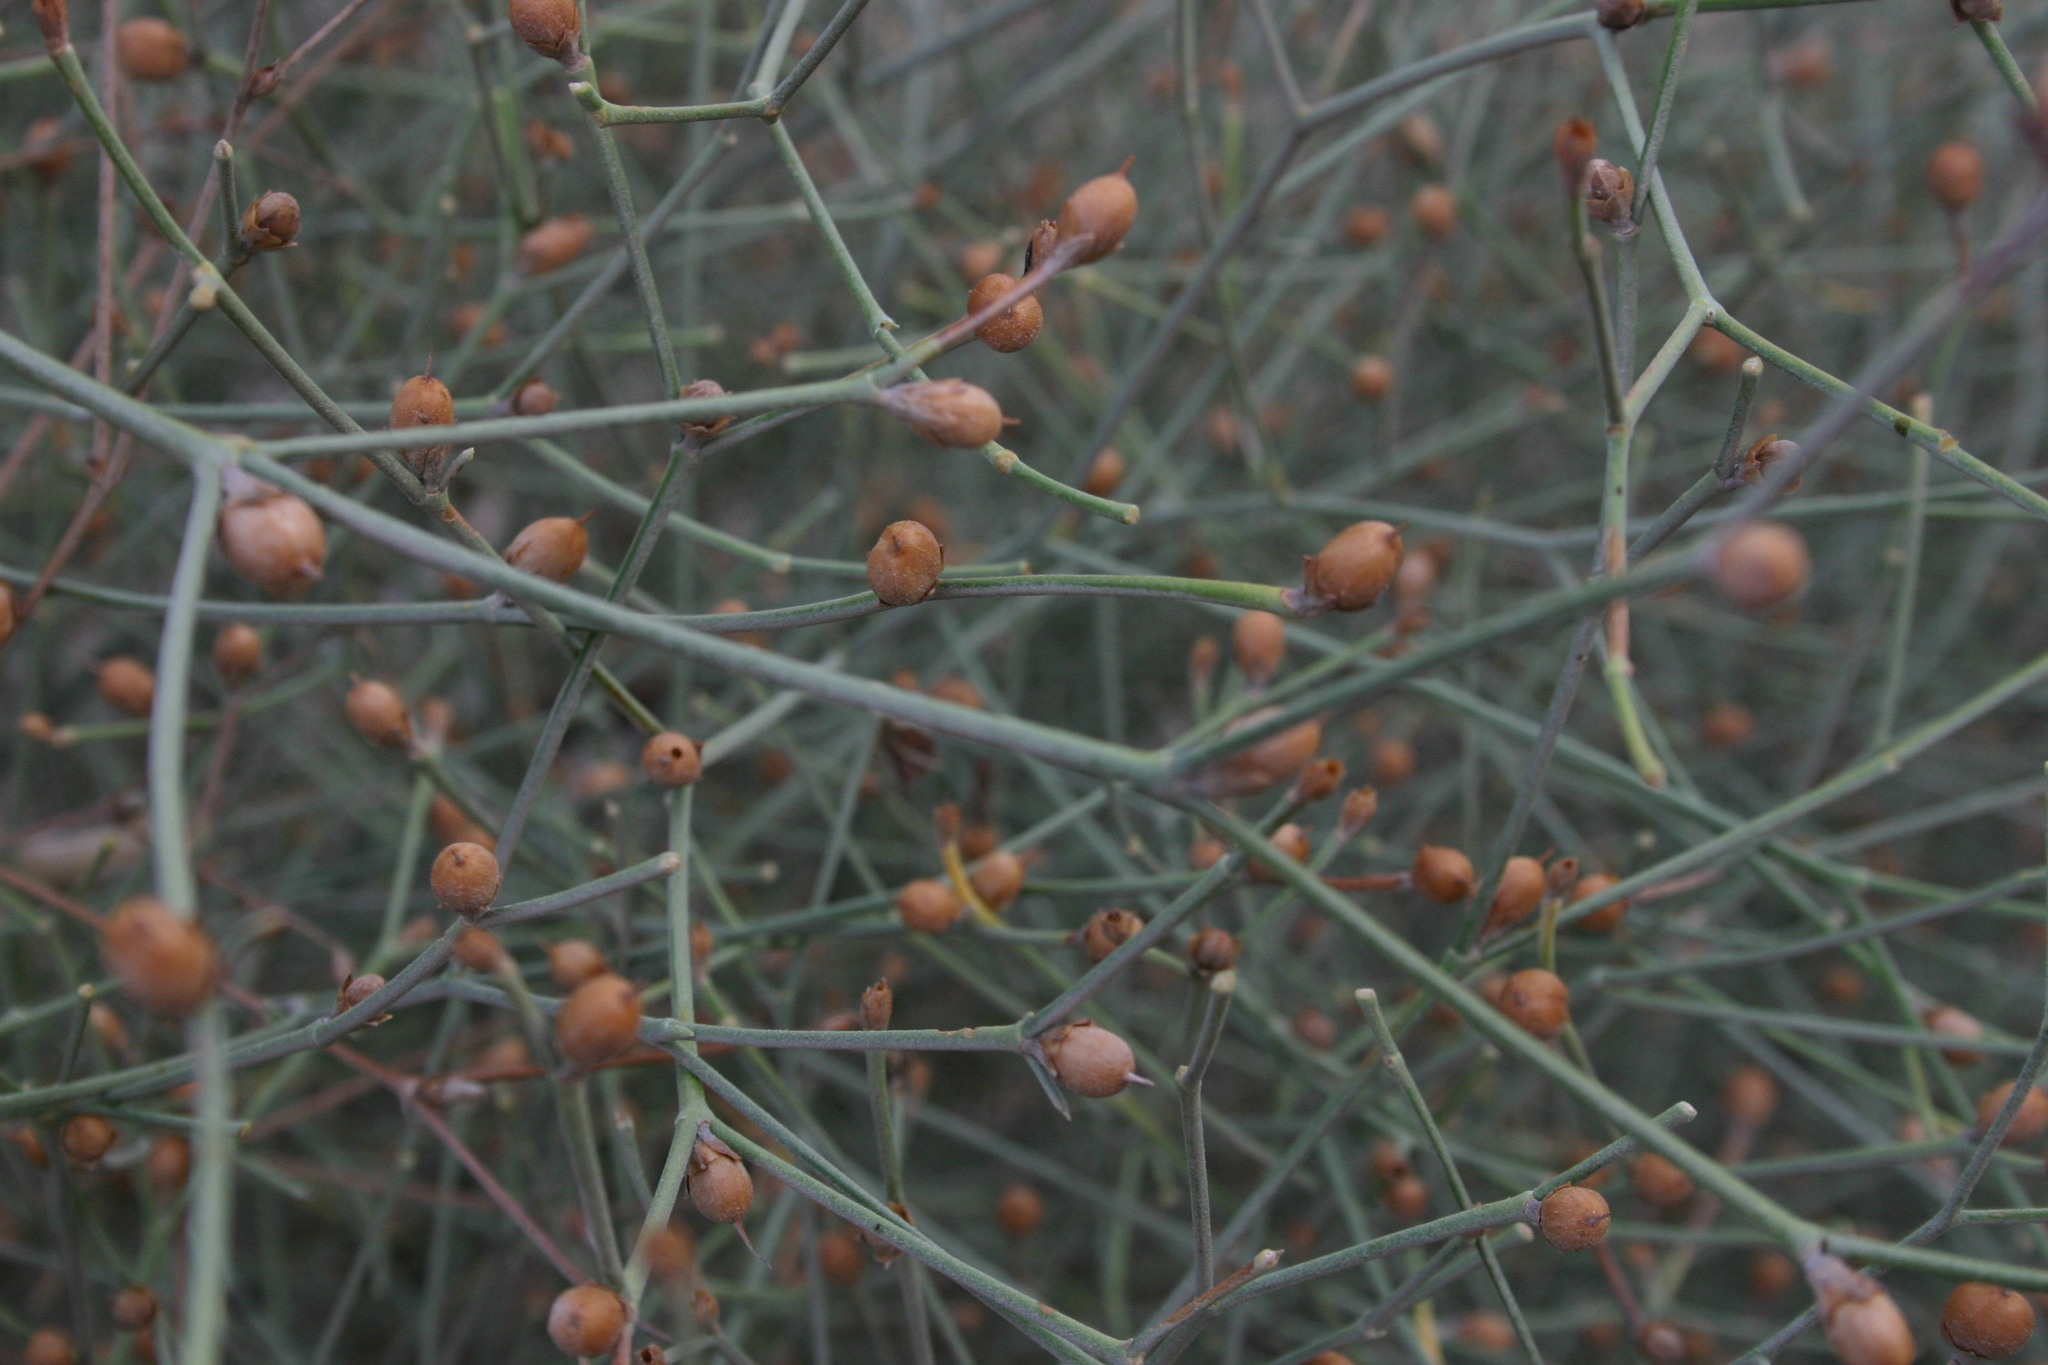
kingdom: Plantae
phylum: Tracheophyta
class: Magnoliopsida
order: Solanales
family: Convolvulaceae
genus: Convolvulus
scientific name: Convolvulus dorycnium
